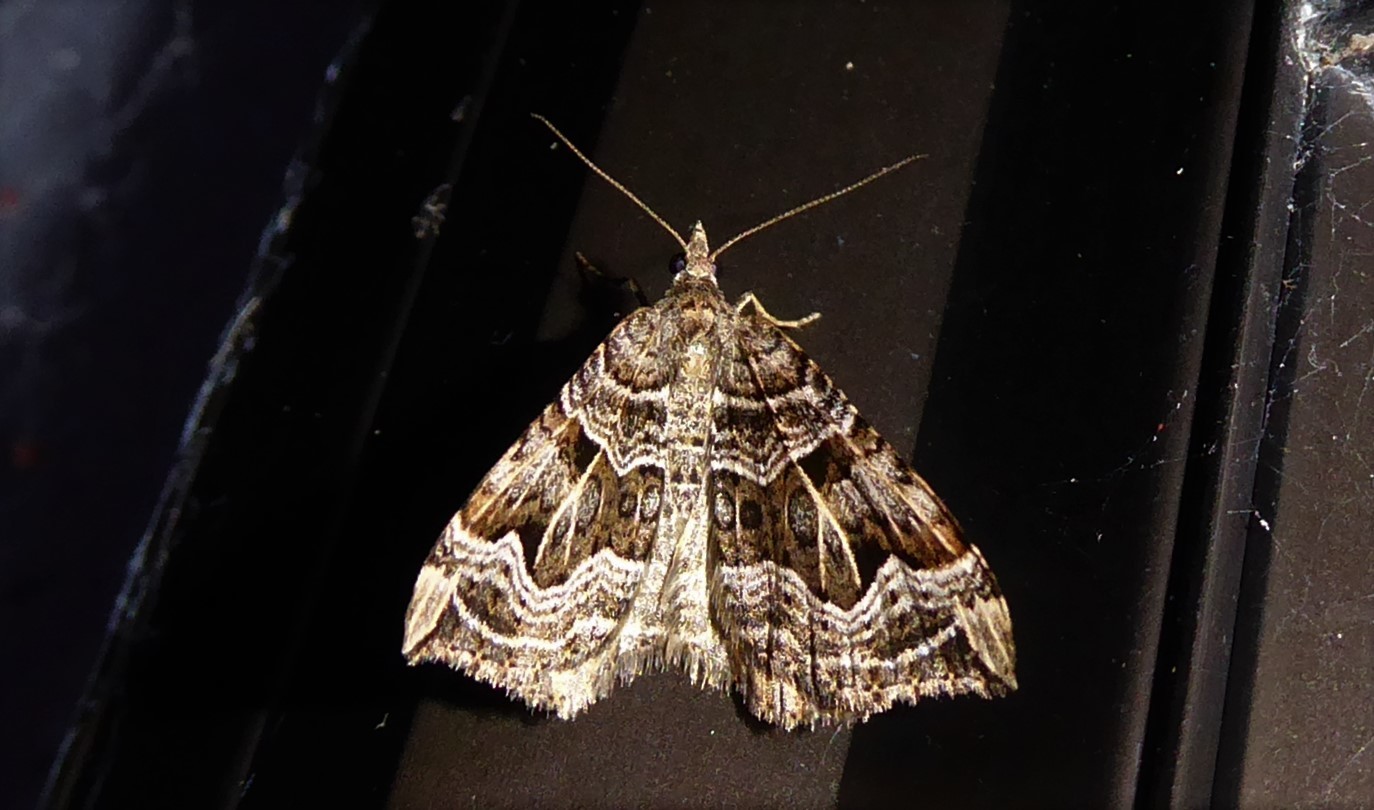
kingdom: Animalia
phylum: Arthropoda
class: Insecta
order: Lepidoptera
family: Geometridae
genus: Xanthorhoe
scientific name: Xanthorhoe semifissata
